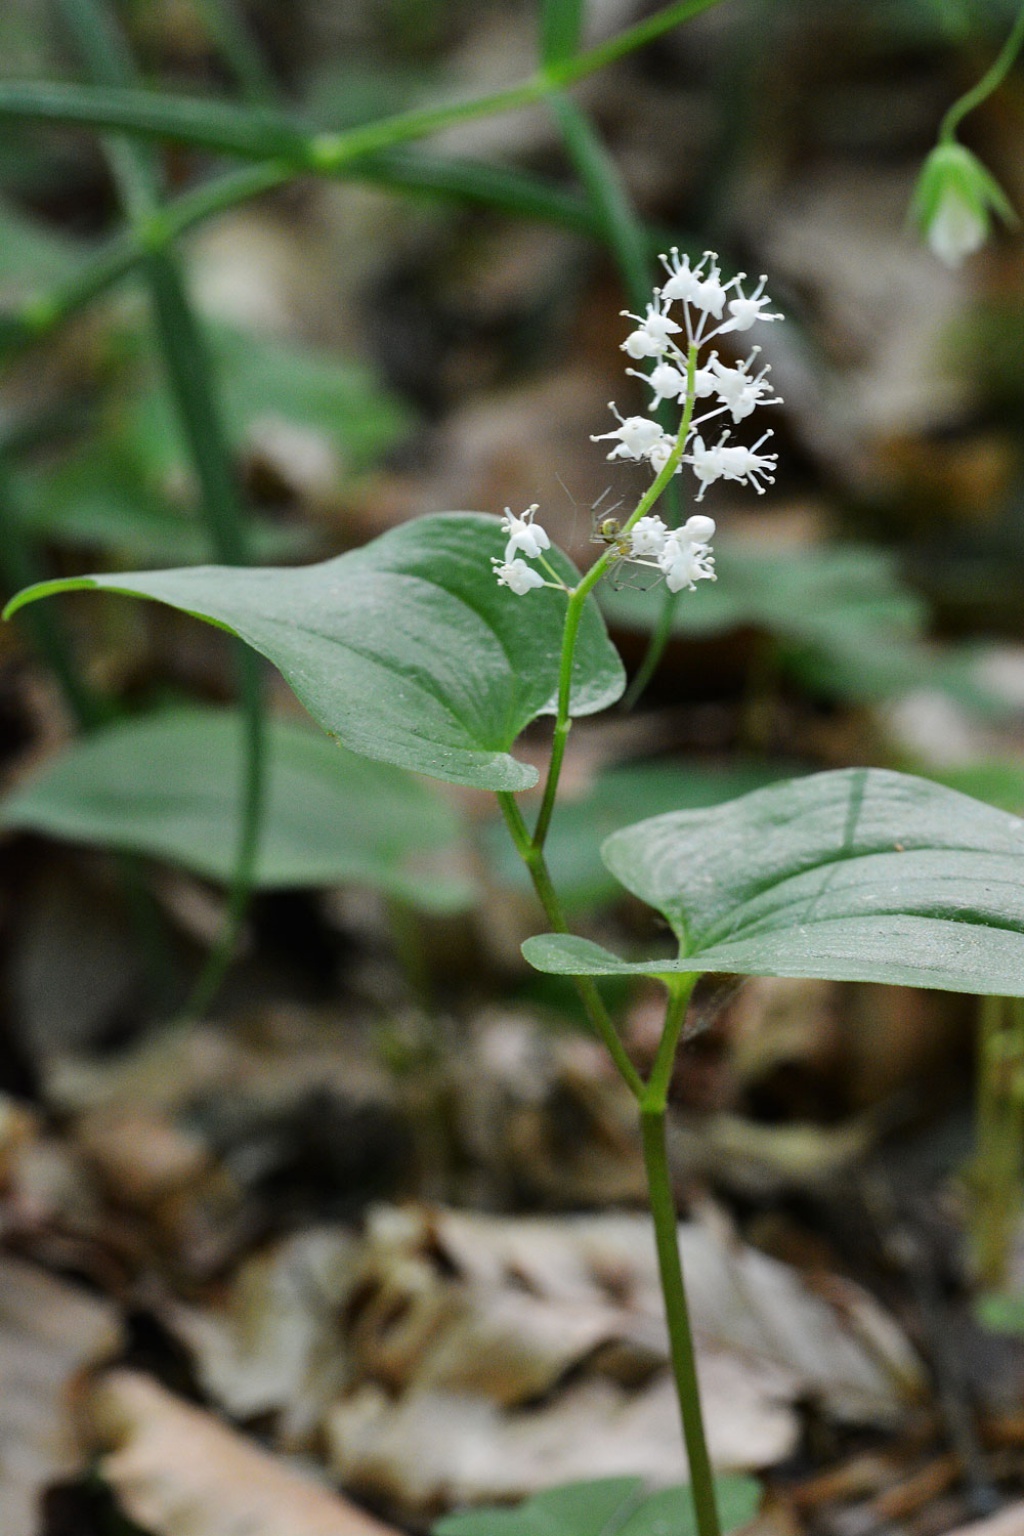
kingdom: Plantae
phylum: Tracheophyta
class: Liliopsida
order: Asparagales
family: Asparagaceae
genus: Maianthemum
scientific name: Maianthemum bifolium
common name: May lily
